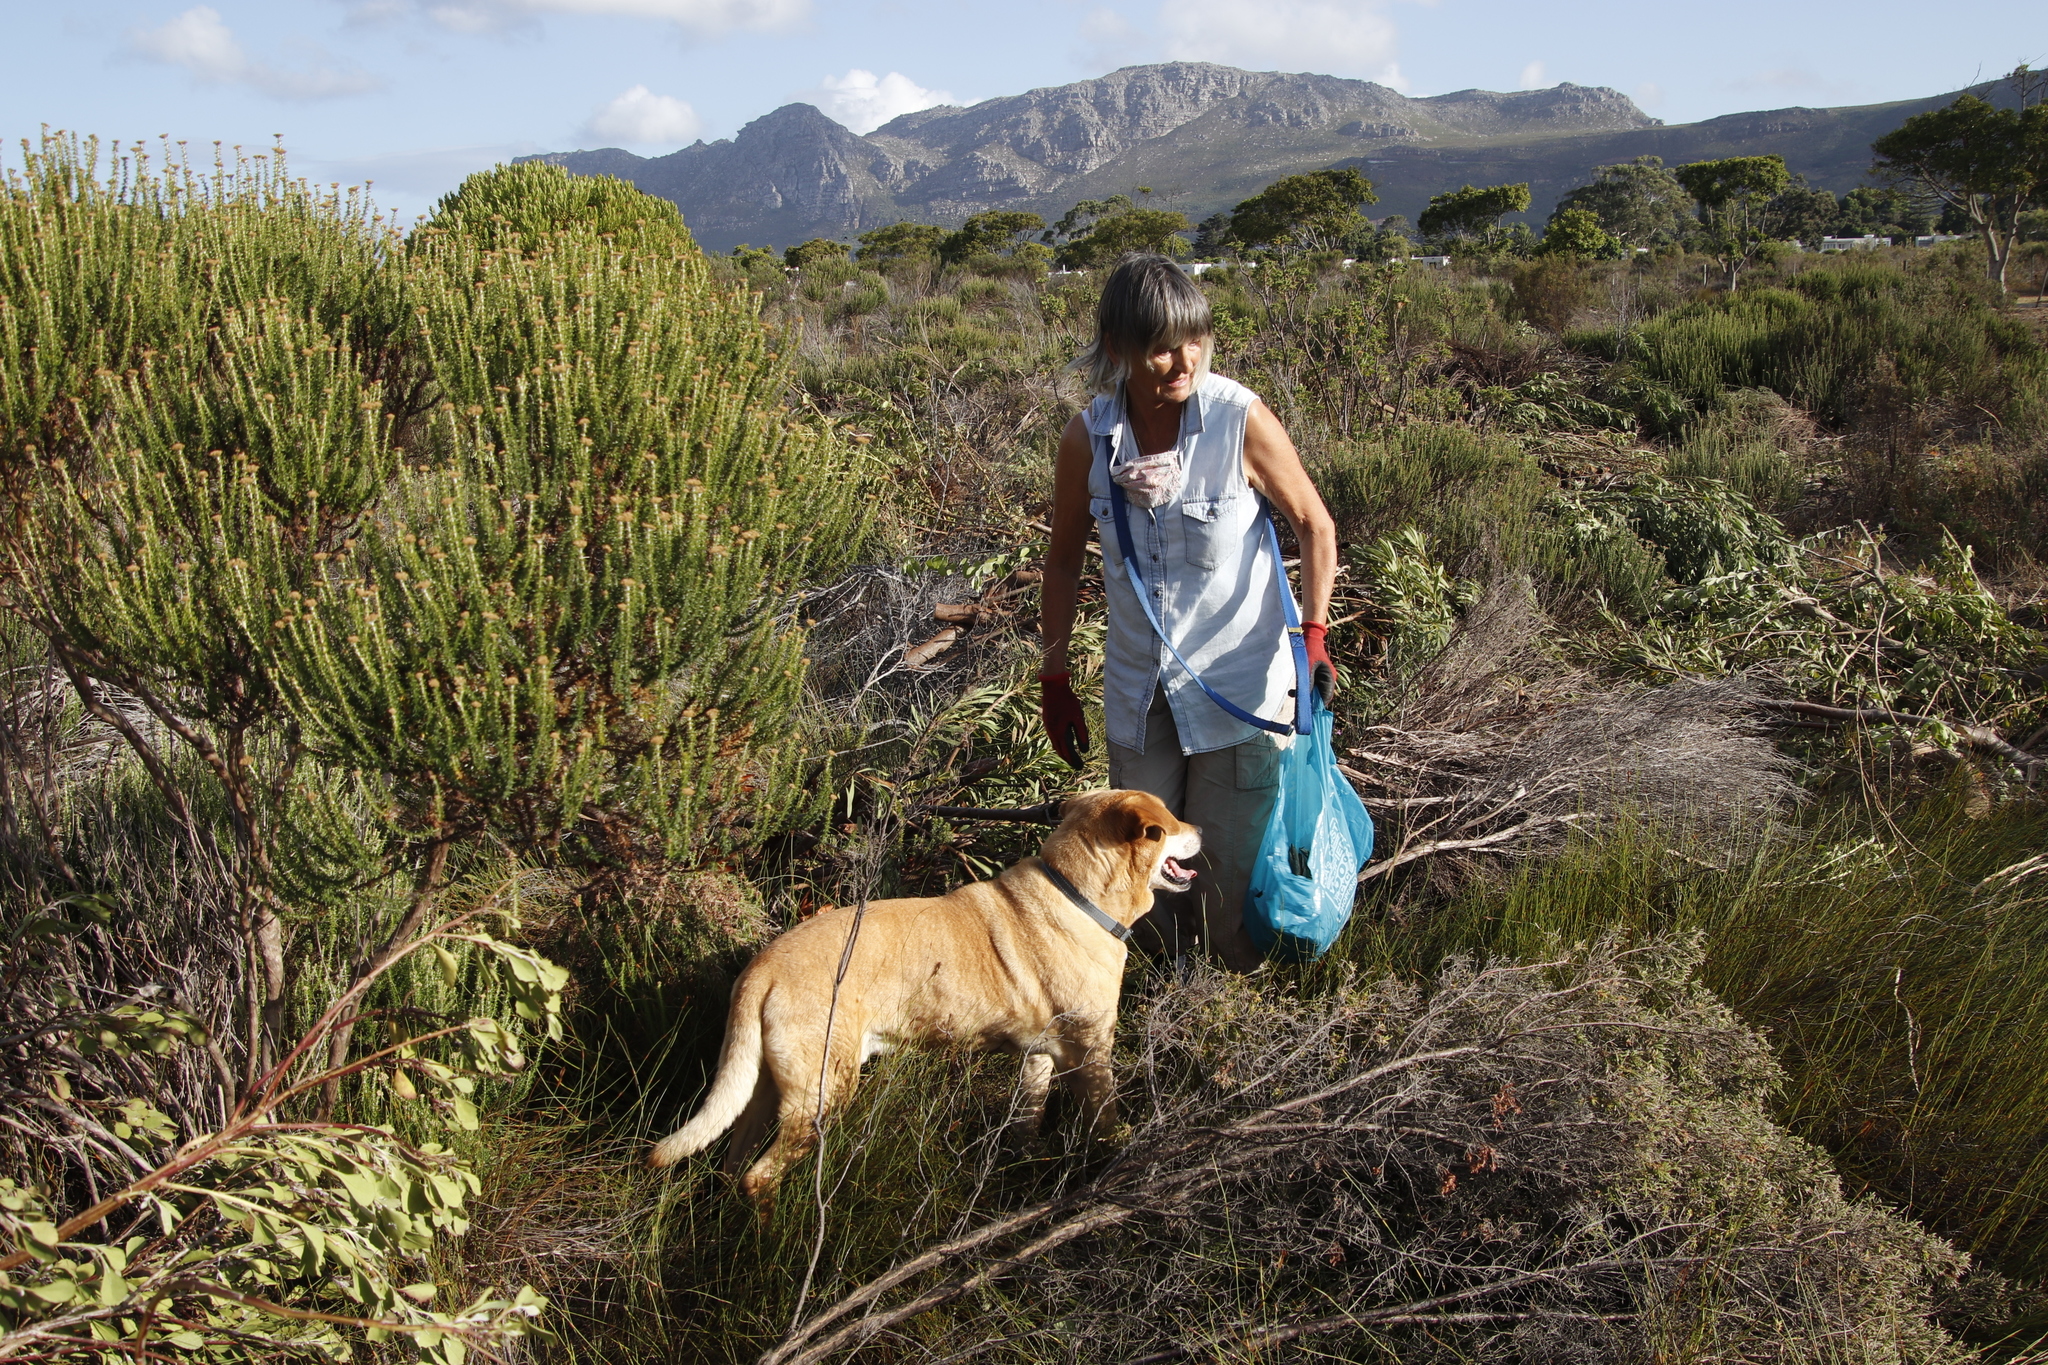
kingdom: Plantae
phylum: Tracheophyta
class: Magnoliopsida
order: Asterales
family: Asteraceae
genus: Metalasia
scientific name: Metalasia densa
